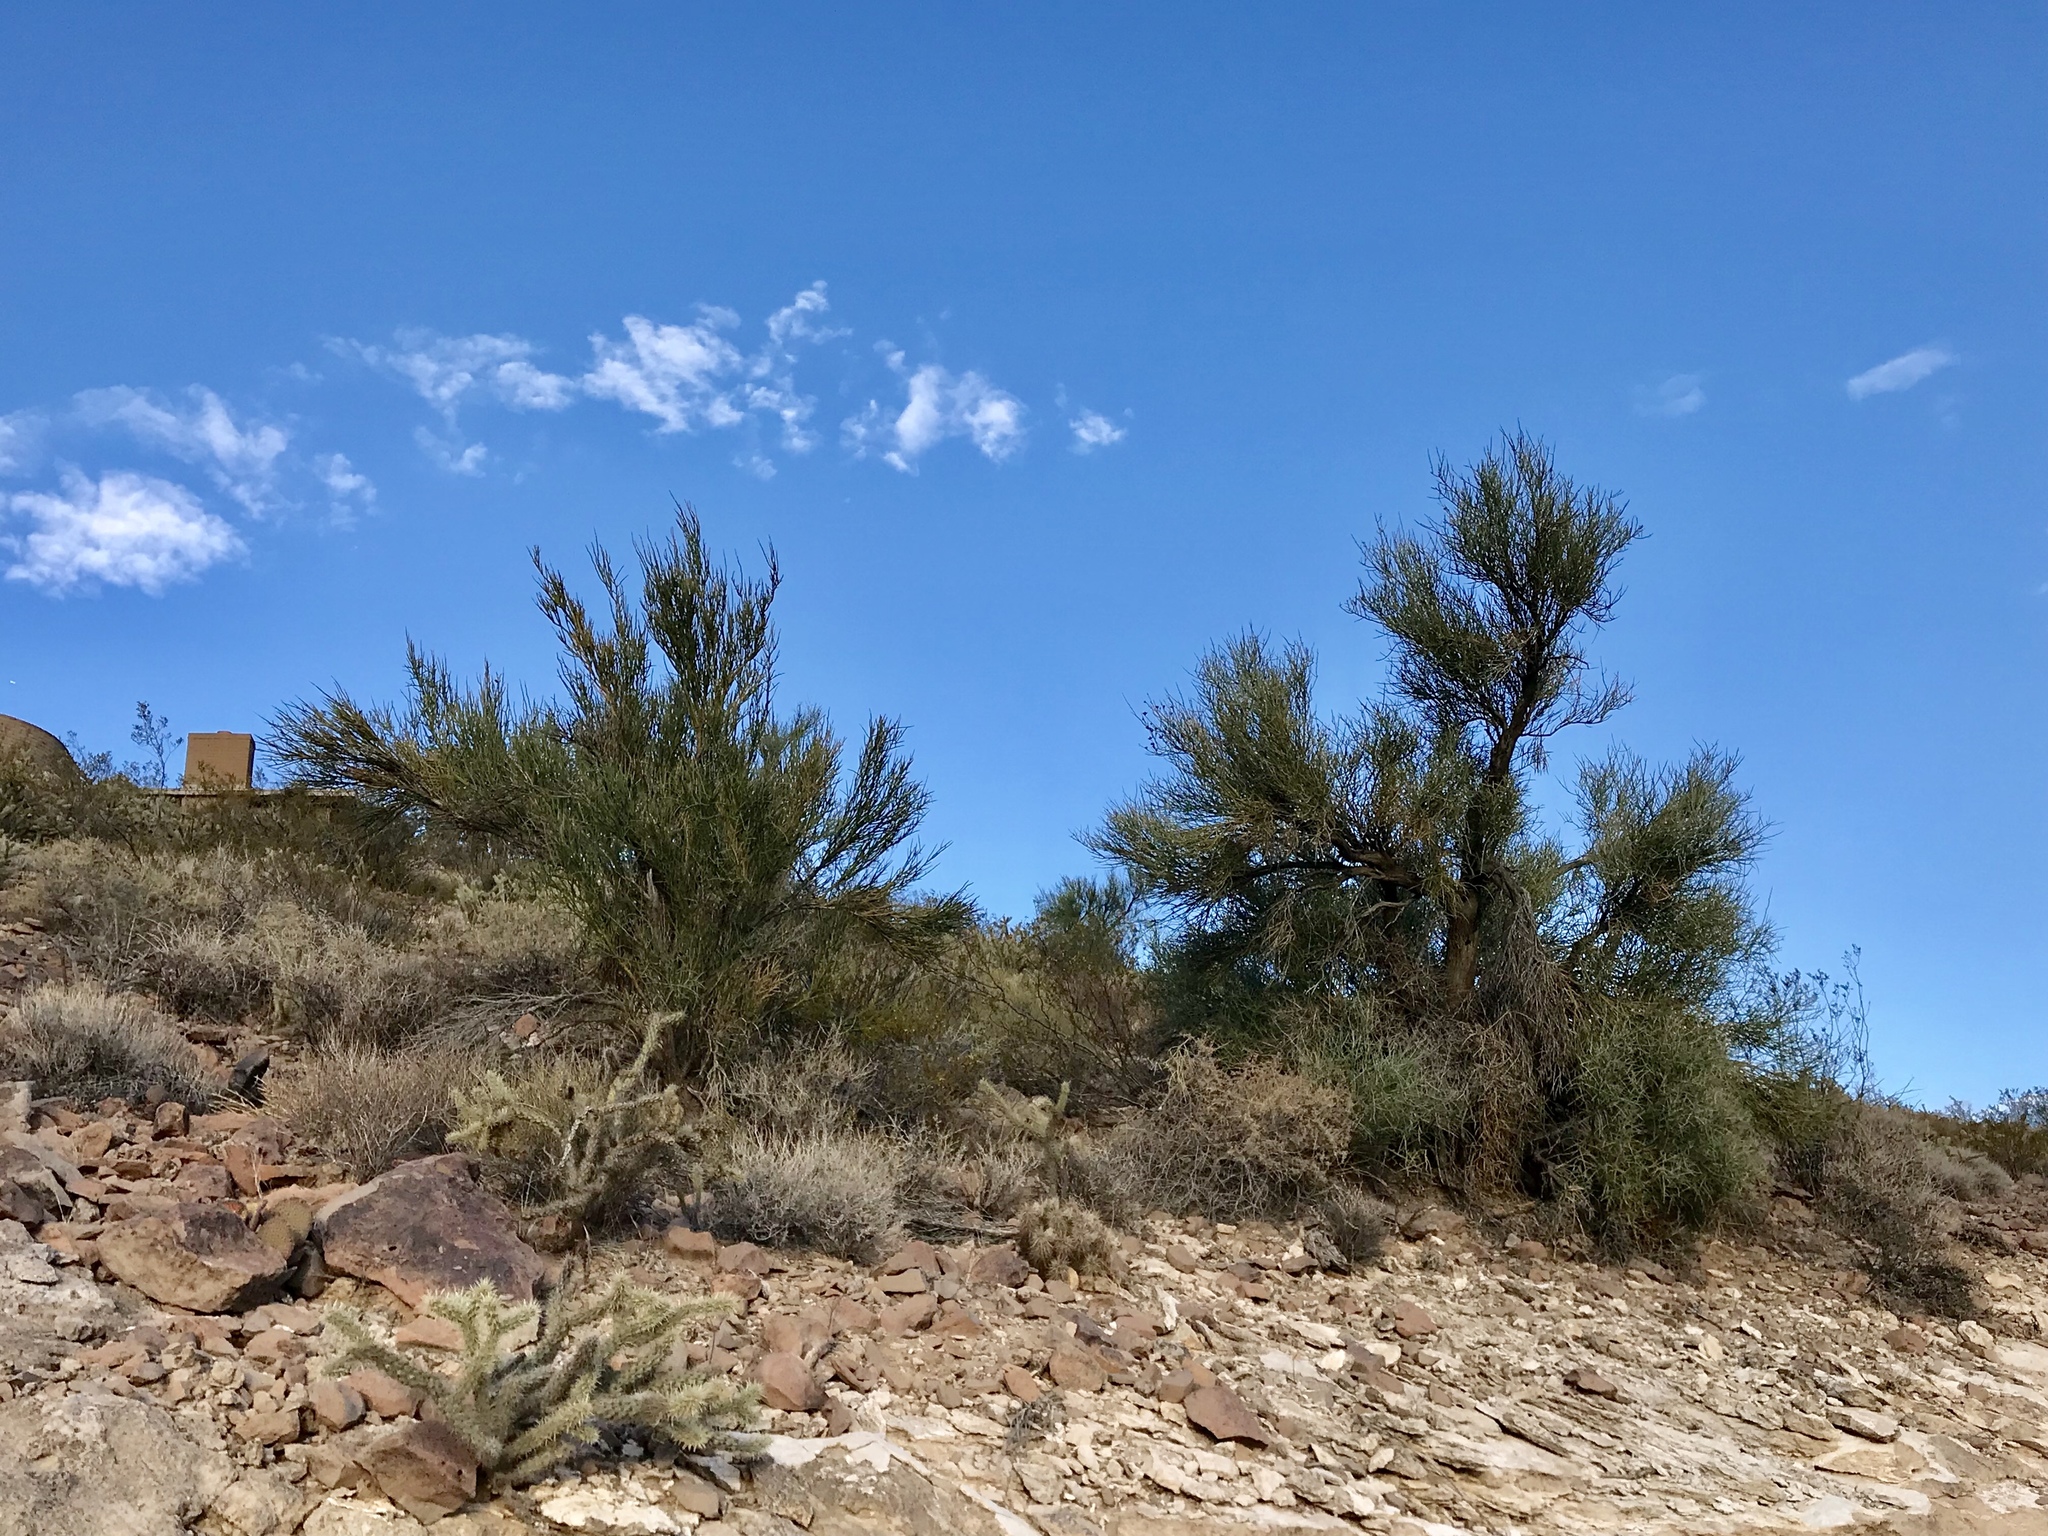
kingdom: Plantae
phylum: Tracheophyta
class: Magnoliopsida
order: Celastrales
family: Celastraceae
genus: Canotia
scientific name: Canotia holacantha
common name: Crucifixion thorns
